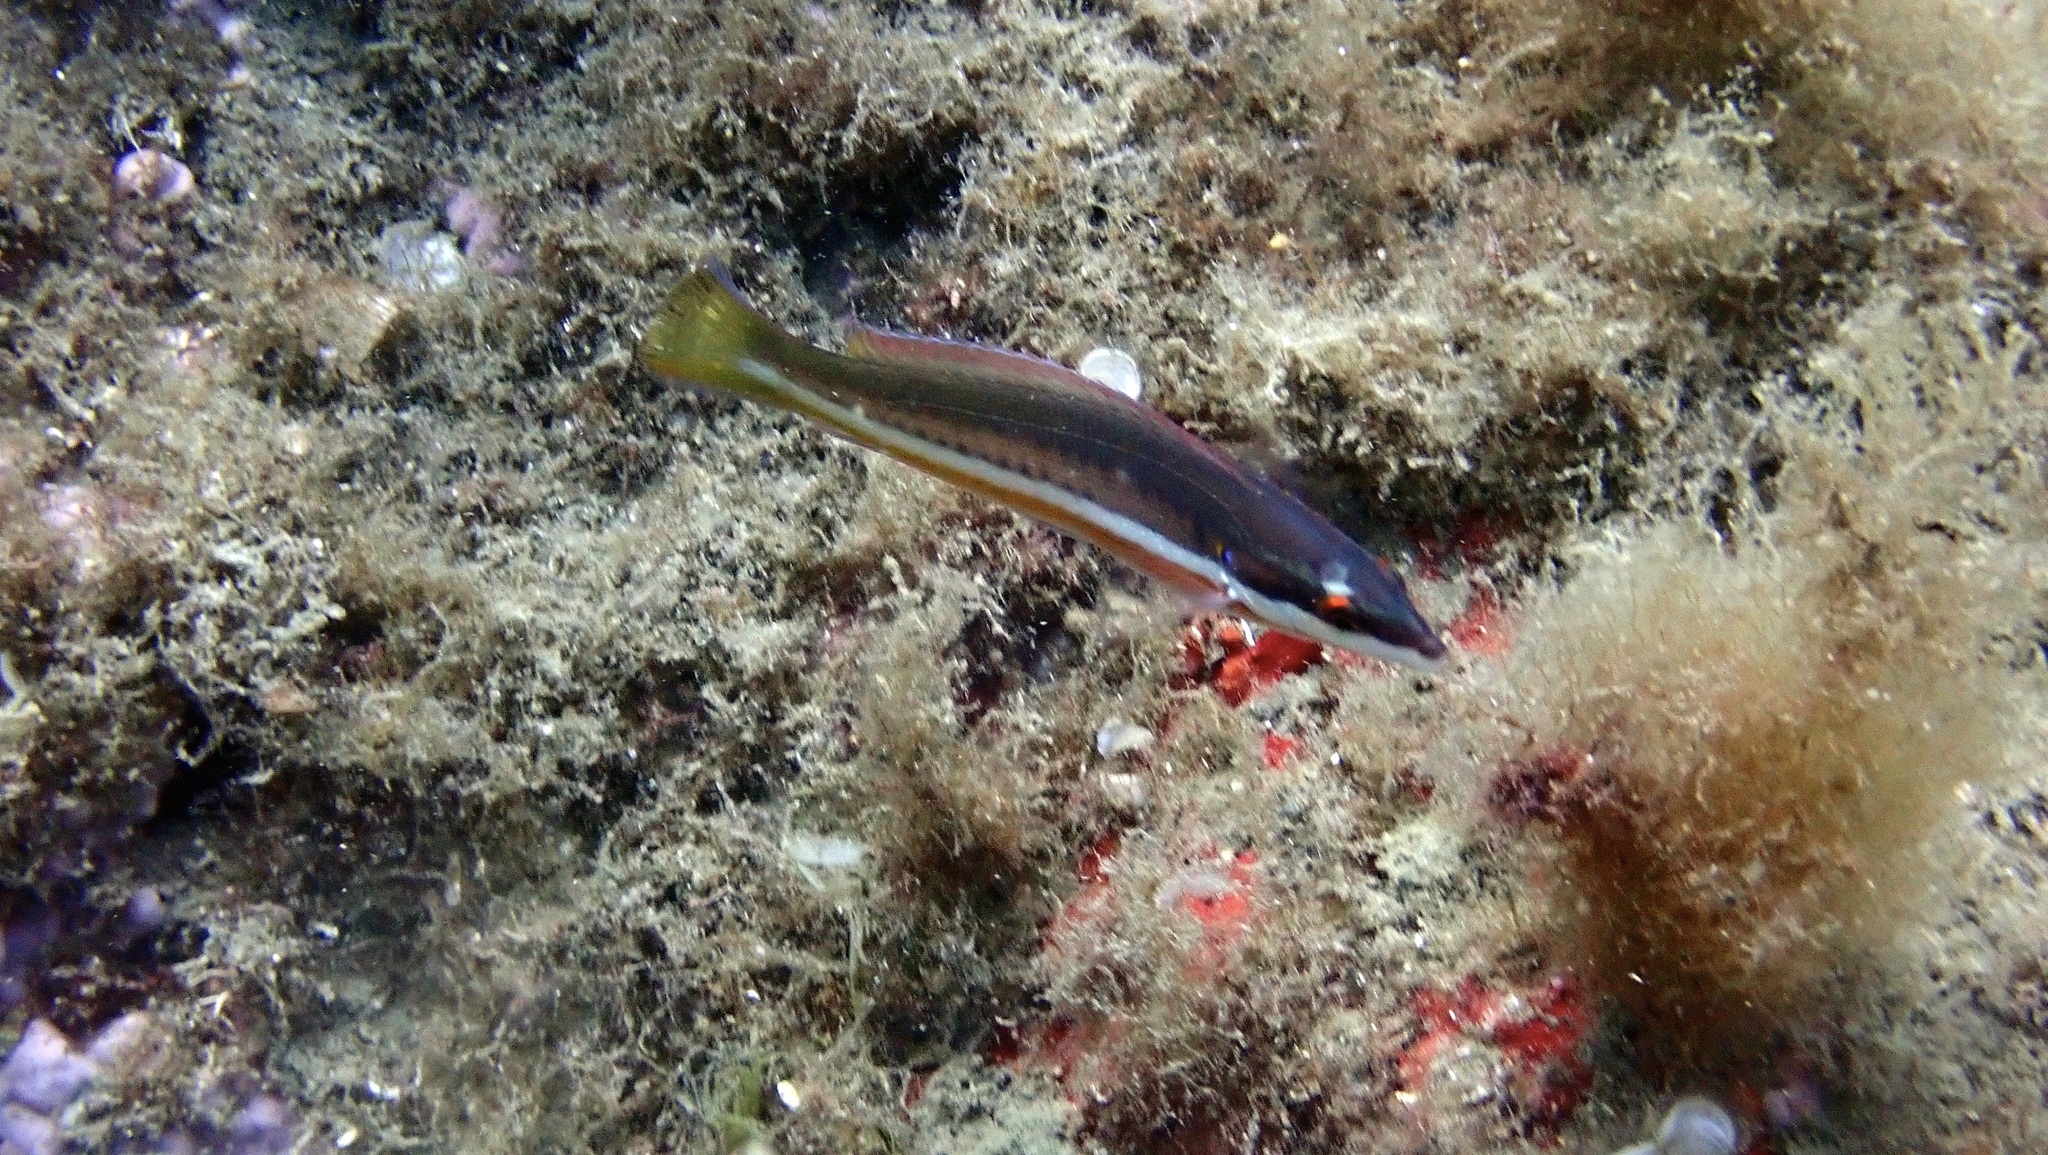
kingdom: Animalia
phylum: Chordata
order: Perciformes
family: Labridae
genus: Coris
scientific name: Coris julis
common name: Rainbow wrasse
